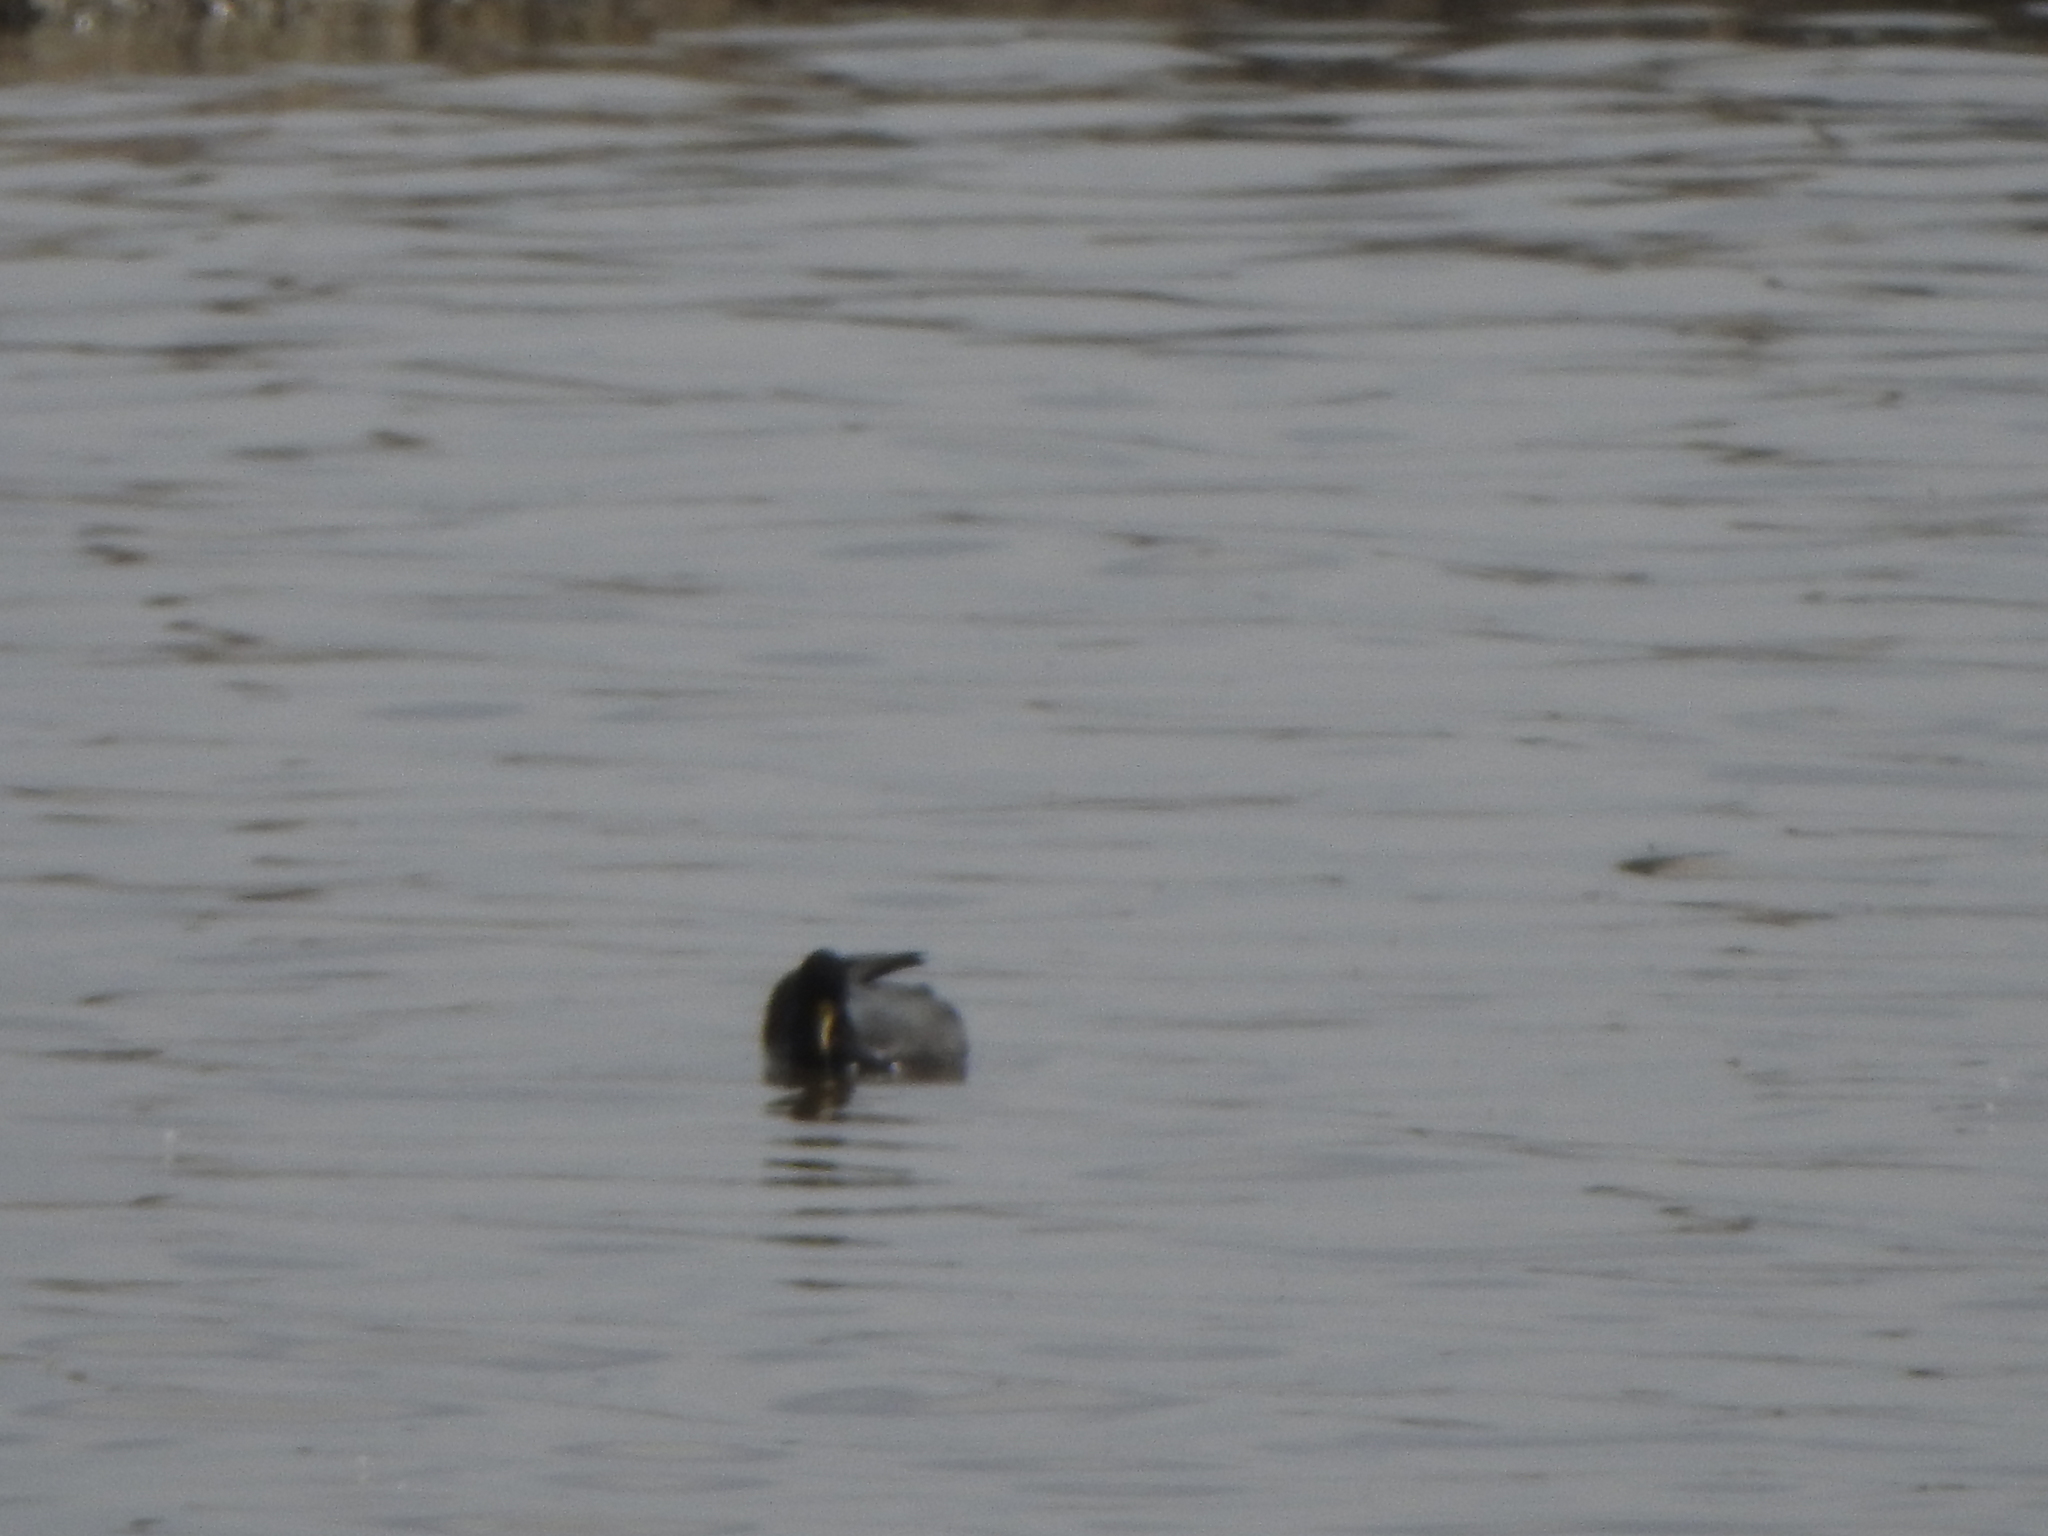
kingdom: Animalia
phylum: Chordata
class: Aves
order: Gruiformes
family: Rallidae
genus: Fulica
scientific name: Fulica leucoptera
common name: White-winged coot
